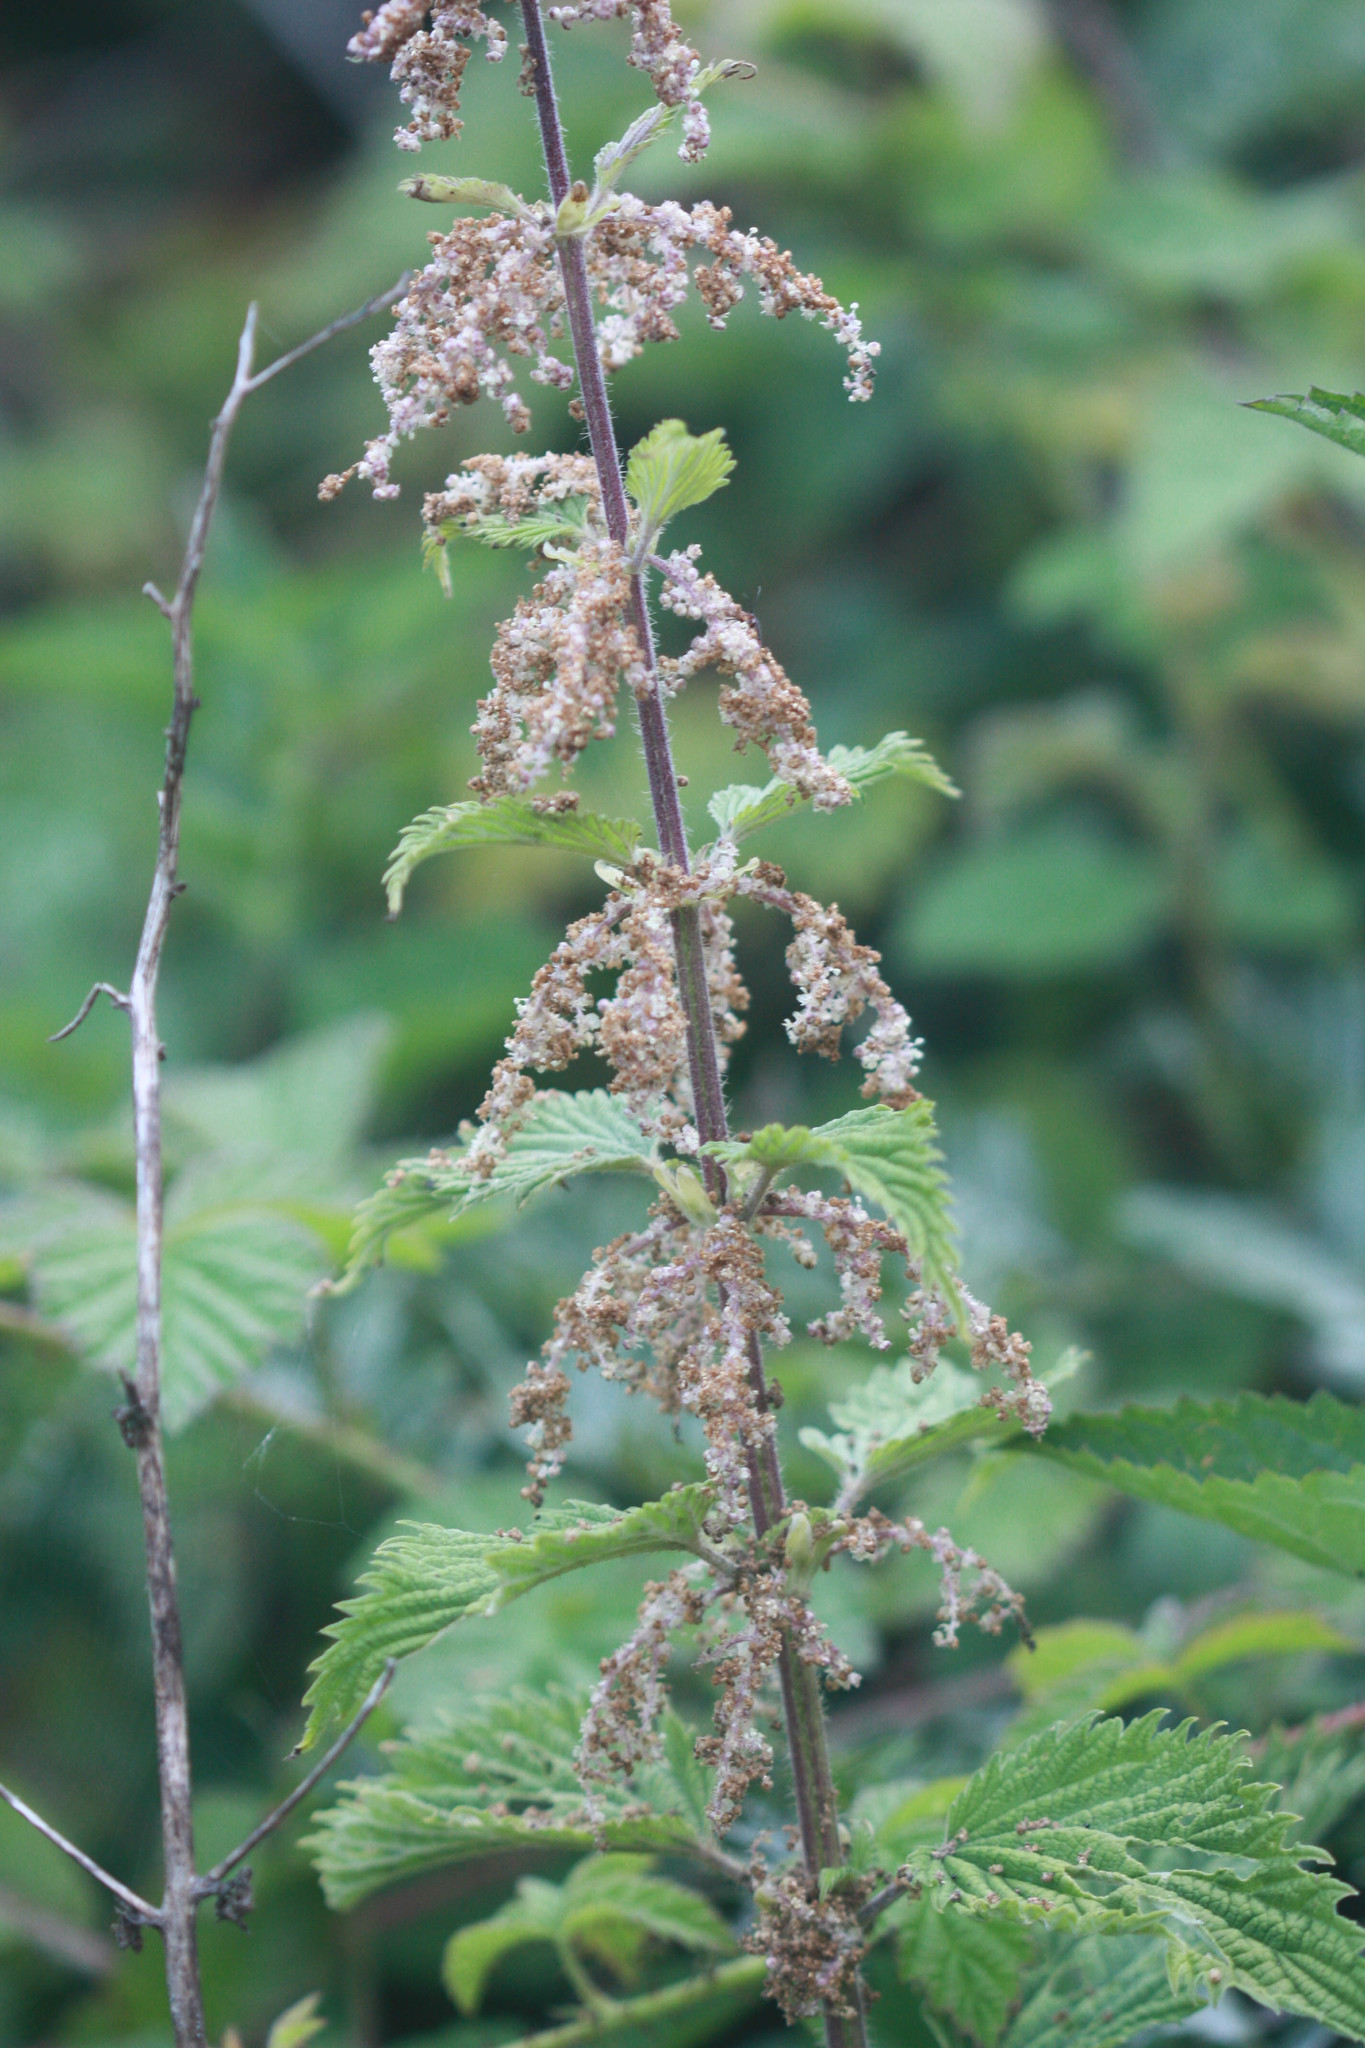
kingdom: Plantae
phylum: Tracheophyta
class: Magnoliopsida
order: Rosales
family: Urticaceae
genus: Urtica
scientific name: Urtica gracilis
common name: Slender stinging nettle
